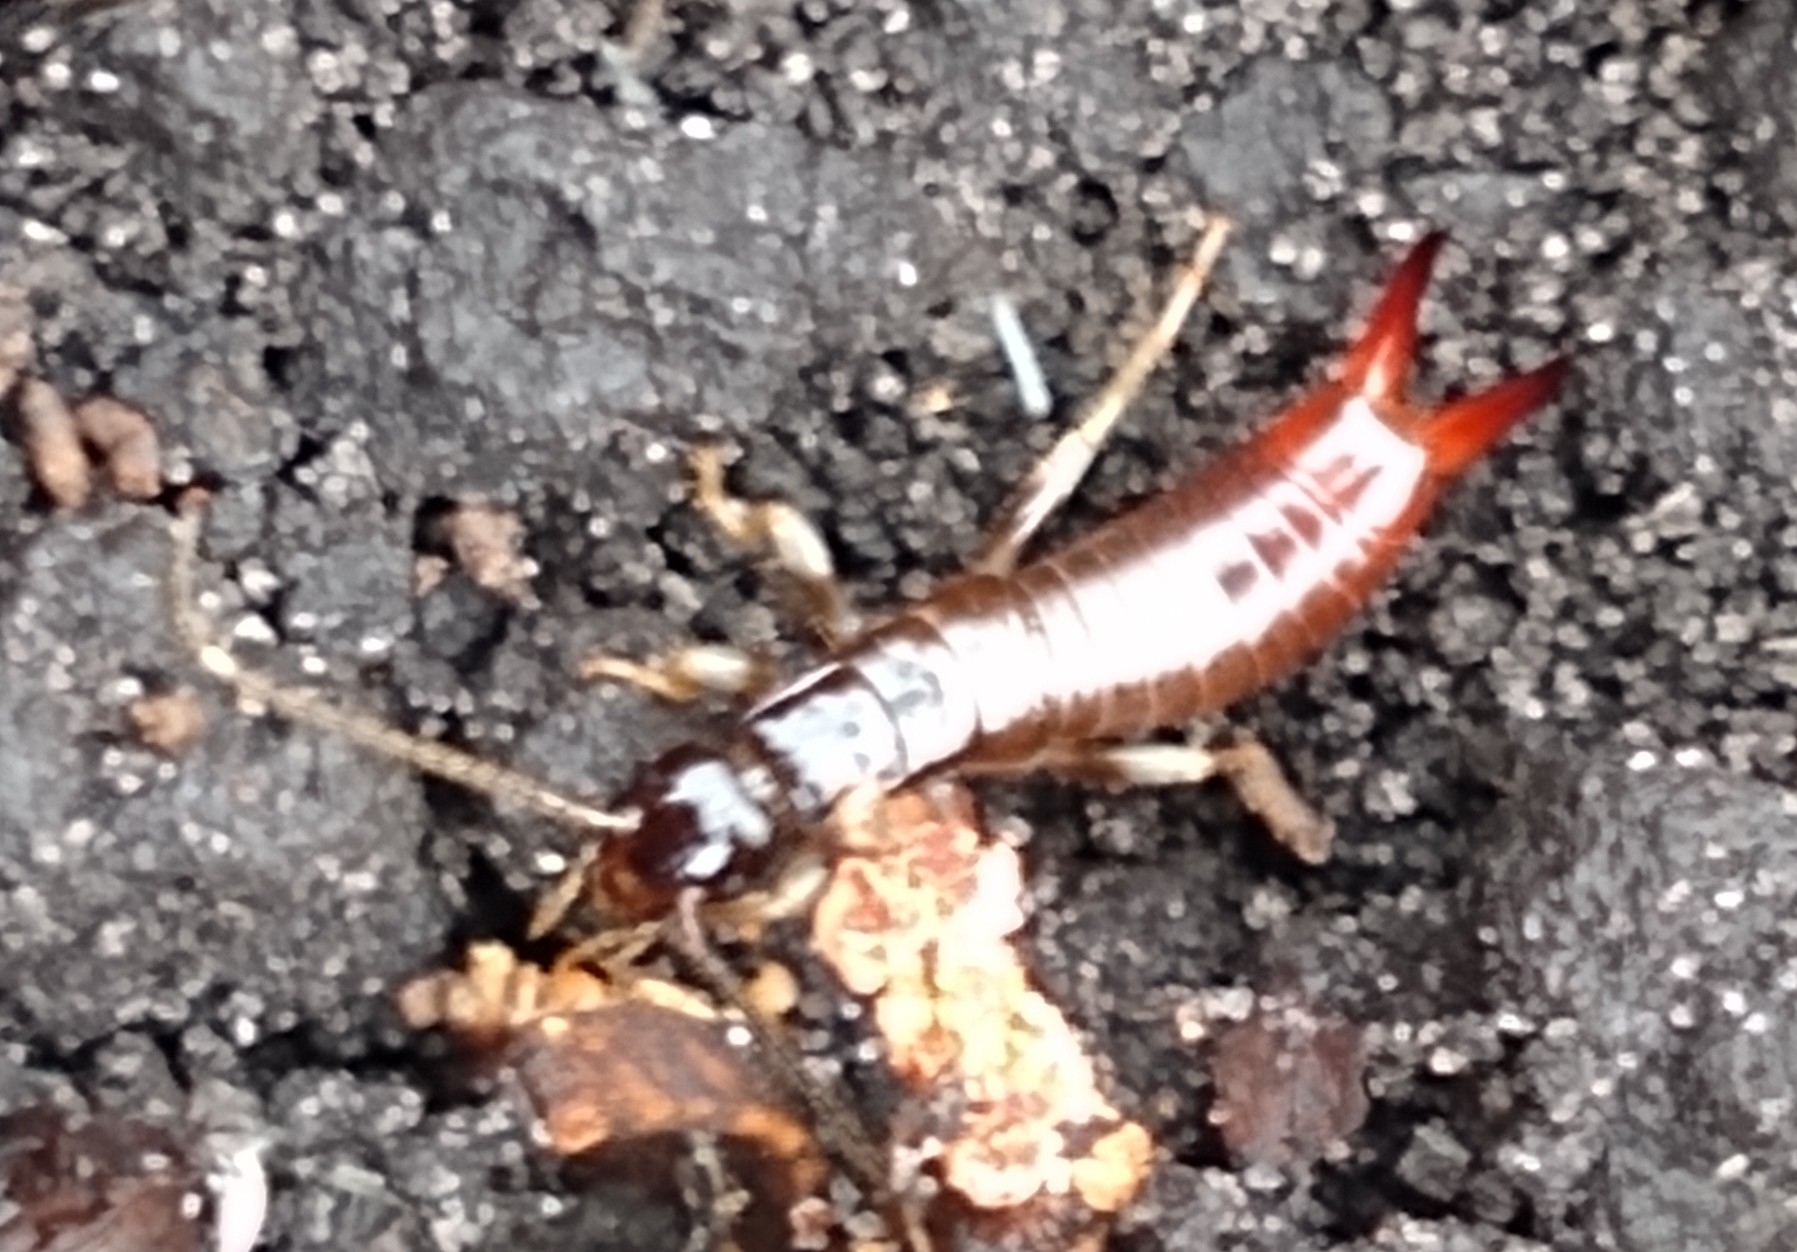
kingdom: Animalia
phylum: Arthropoda
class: Insecta
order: Dermaptera
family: Anisolabididae
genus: Euborellia
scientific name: Euborellia arcanum
